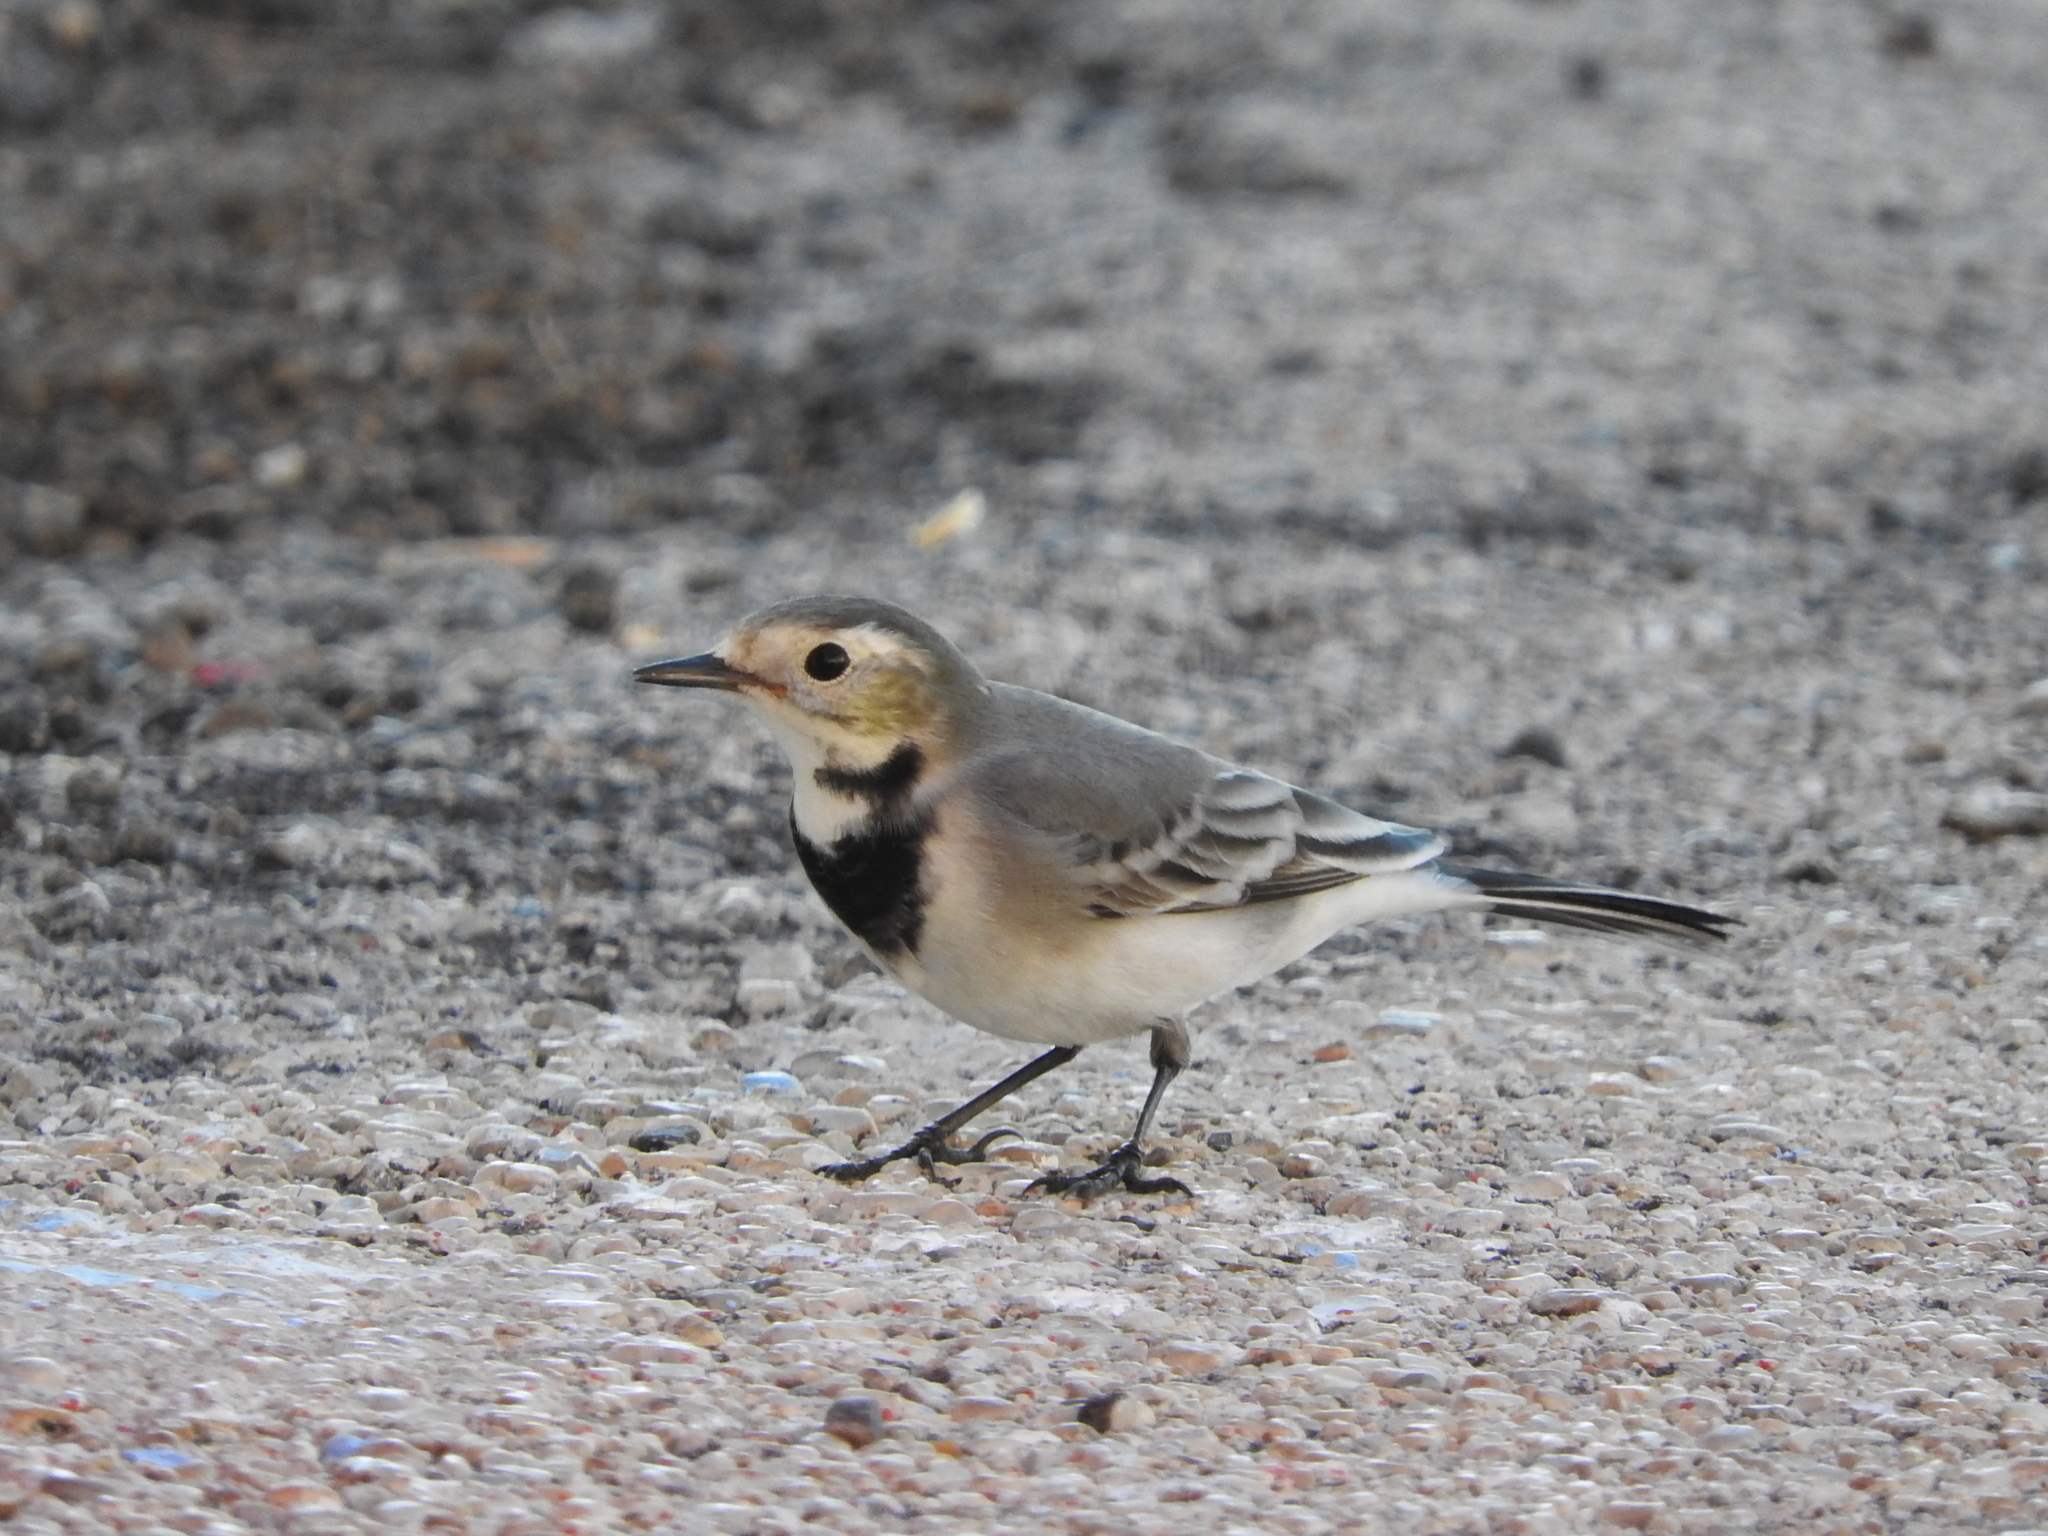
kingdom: Animalia
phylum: Chordata
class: Aves
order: Passeriformes
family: Motacillidae
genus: Motacilla
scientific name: Motacilla alba
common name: White wagtail
